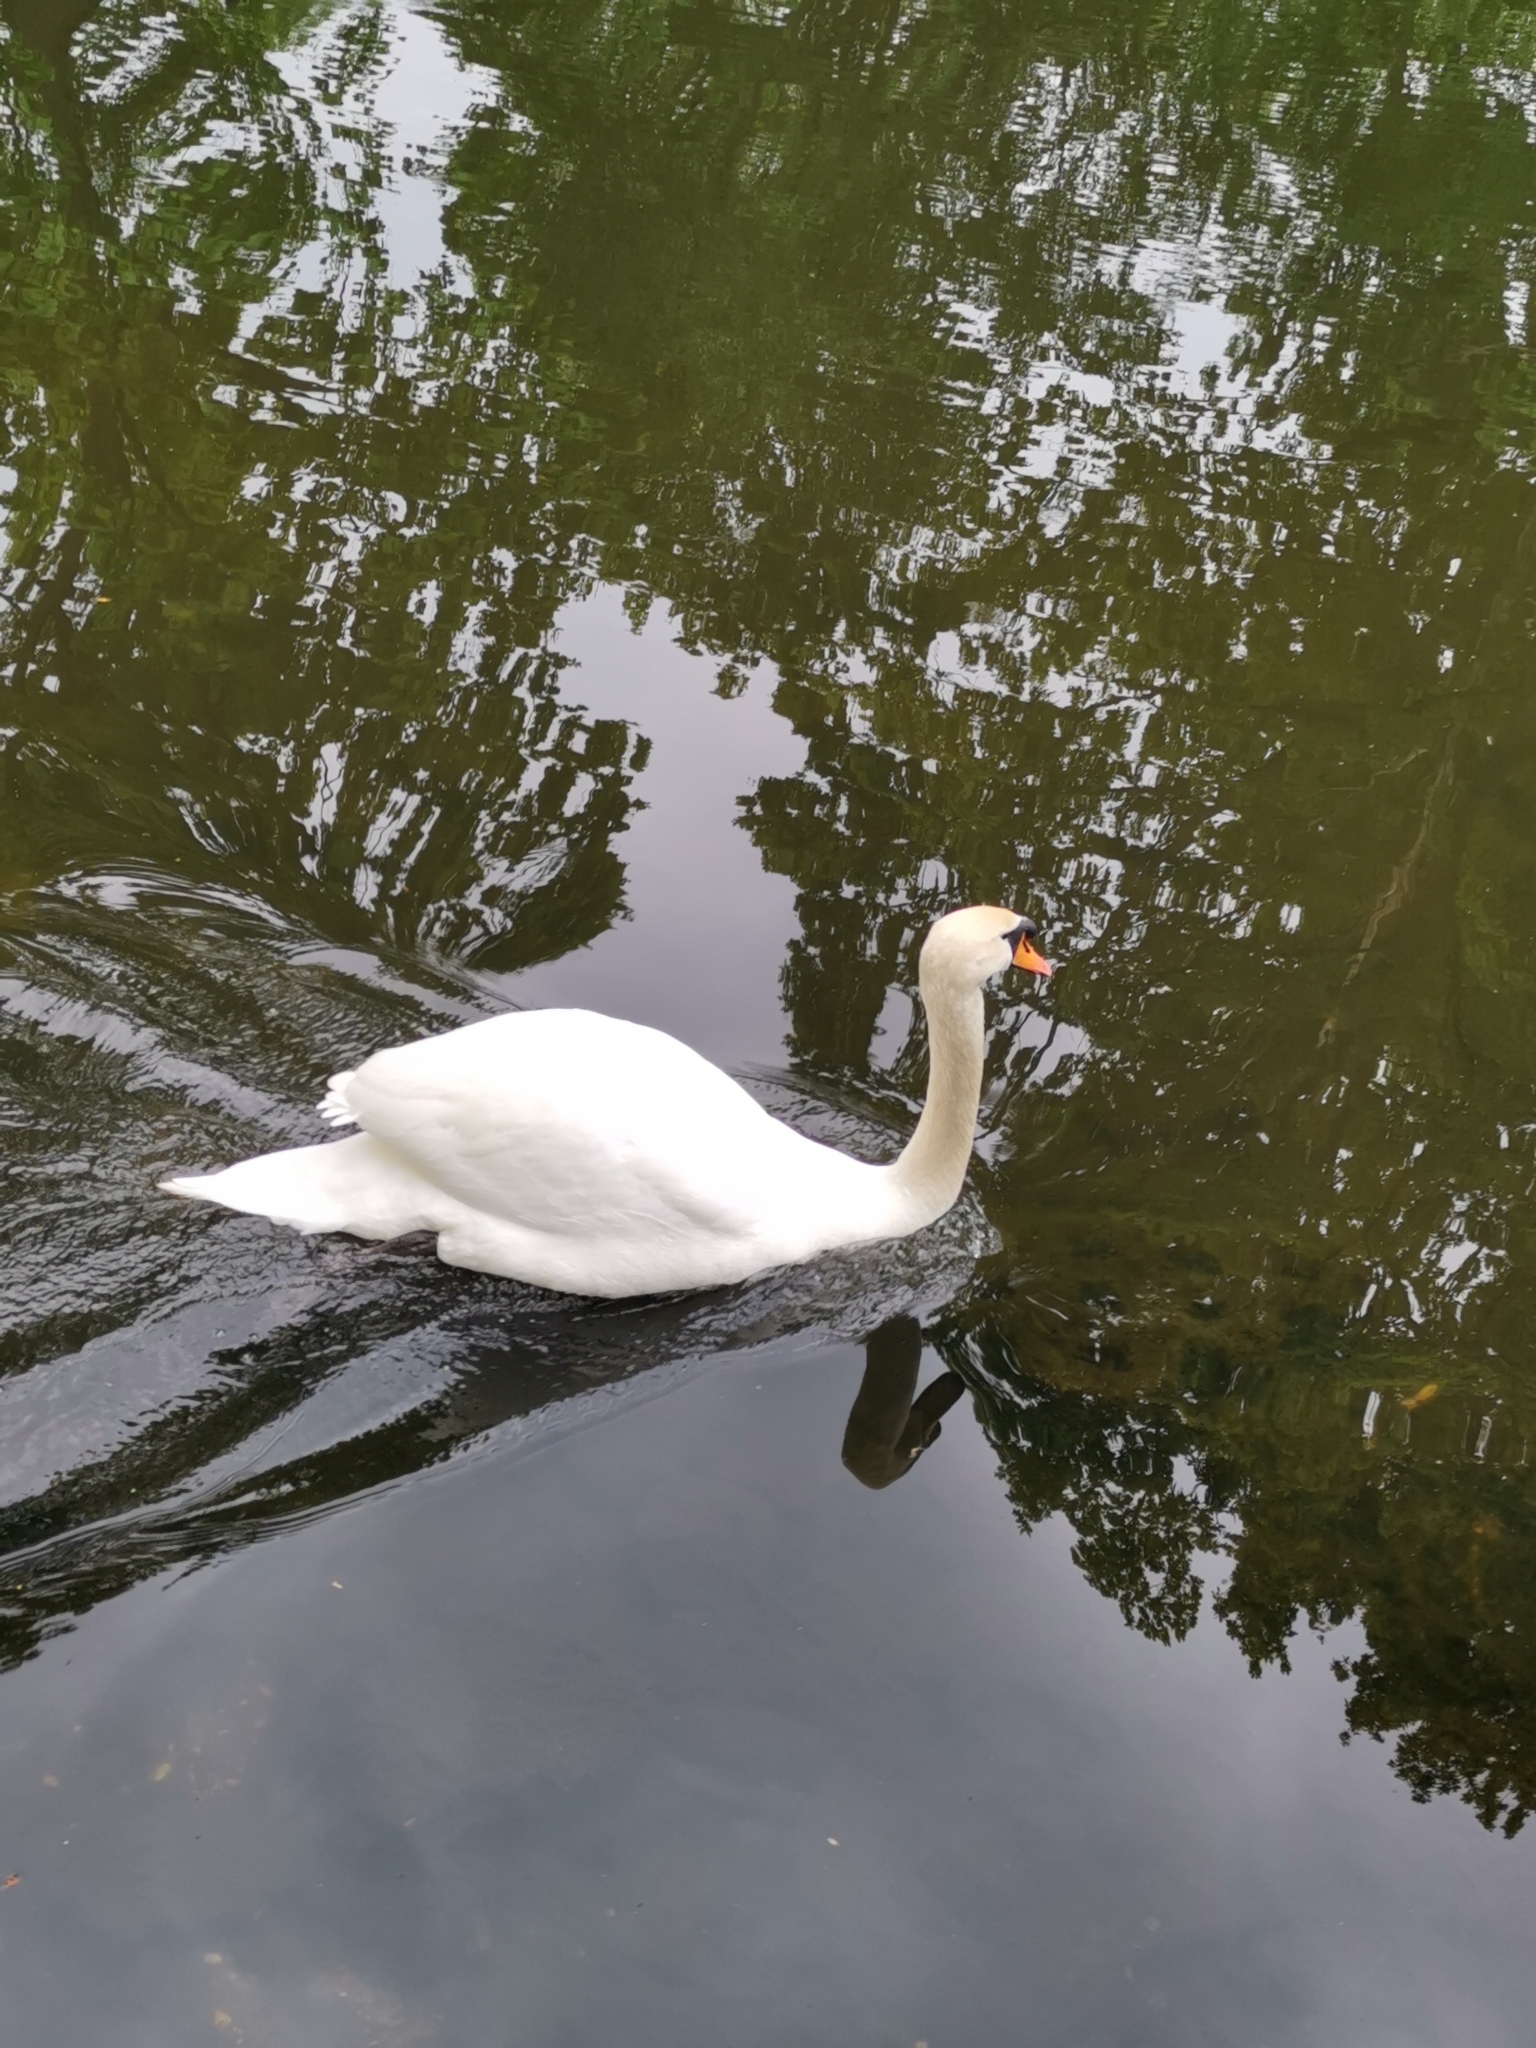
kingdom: Animalia
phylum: Chordata
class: Aves
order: Anseriformes
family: Anatidae
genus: Cygnus
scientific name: Cygnus olor
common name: Mute swan
